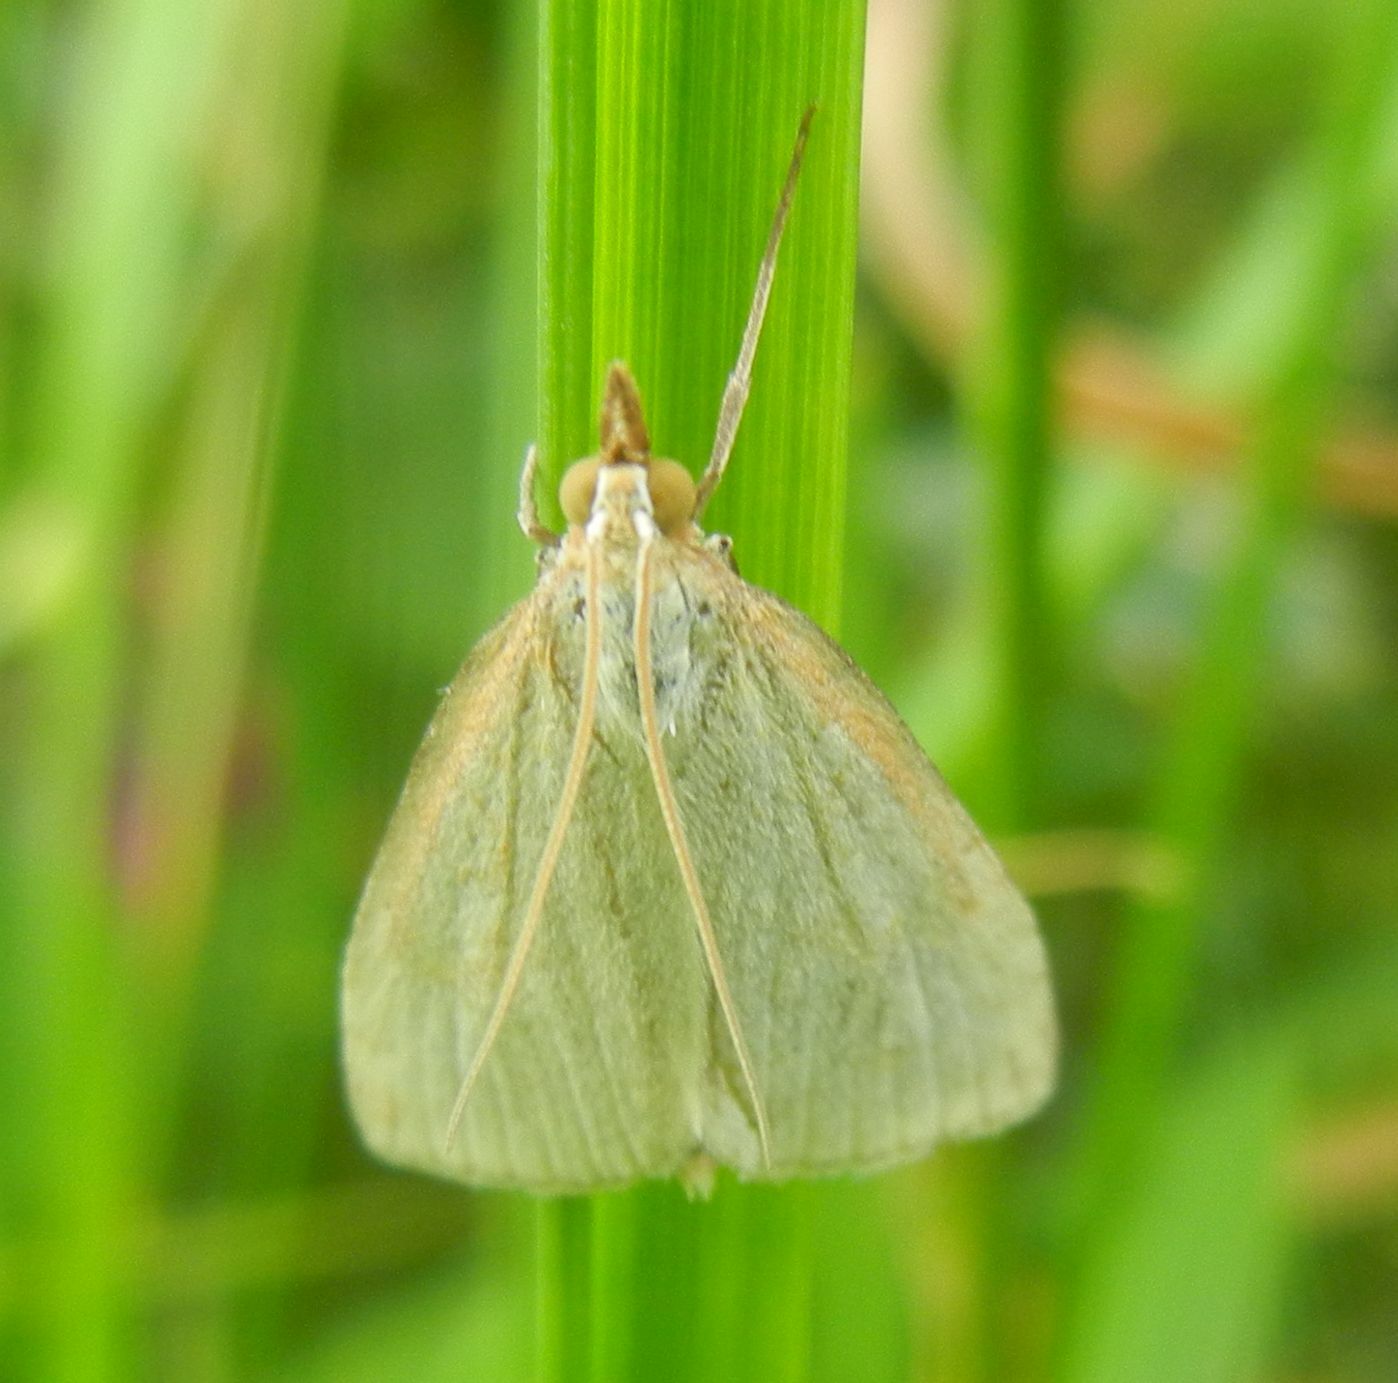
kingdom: Animalia
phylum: Arthropoda
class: Insecta
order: Lepidoptera
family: Crambidae
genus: Udea
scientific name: Udea lutealis
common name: Pale straw pearl
